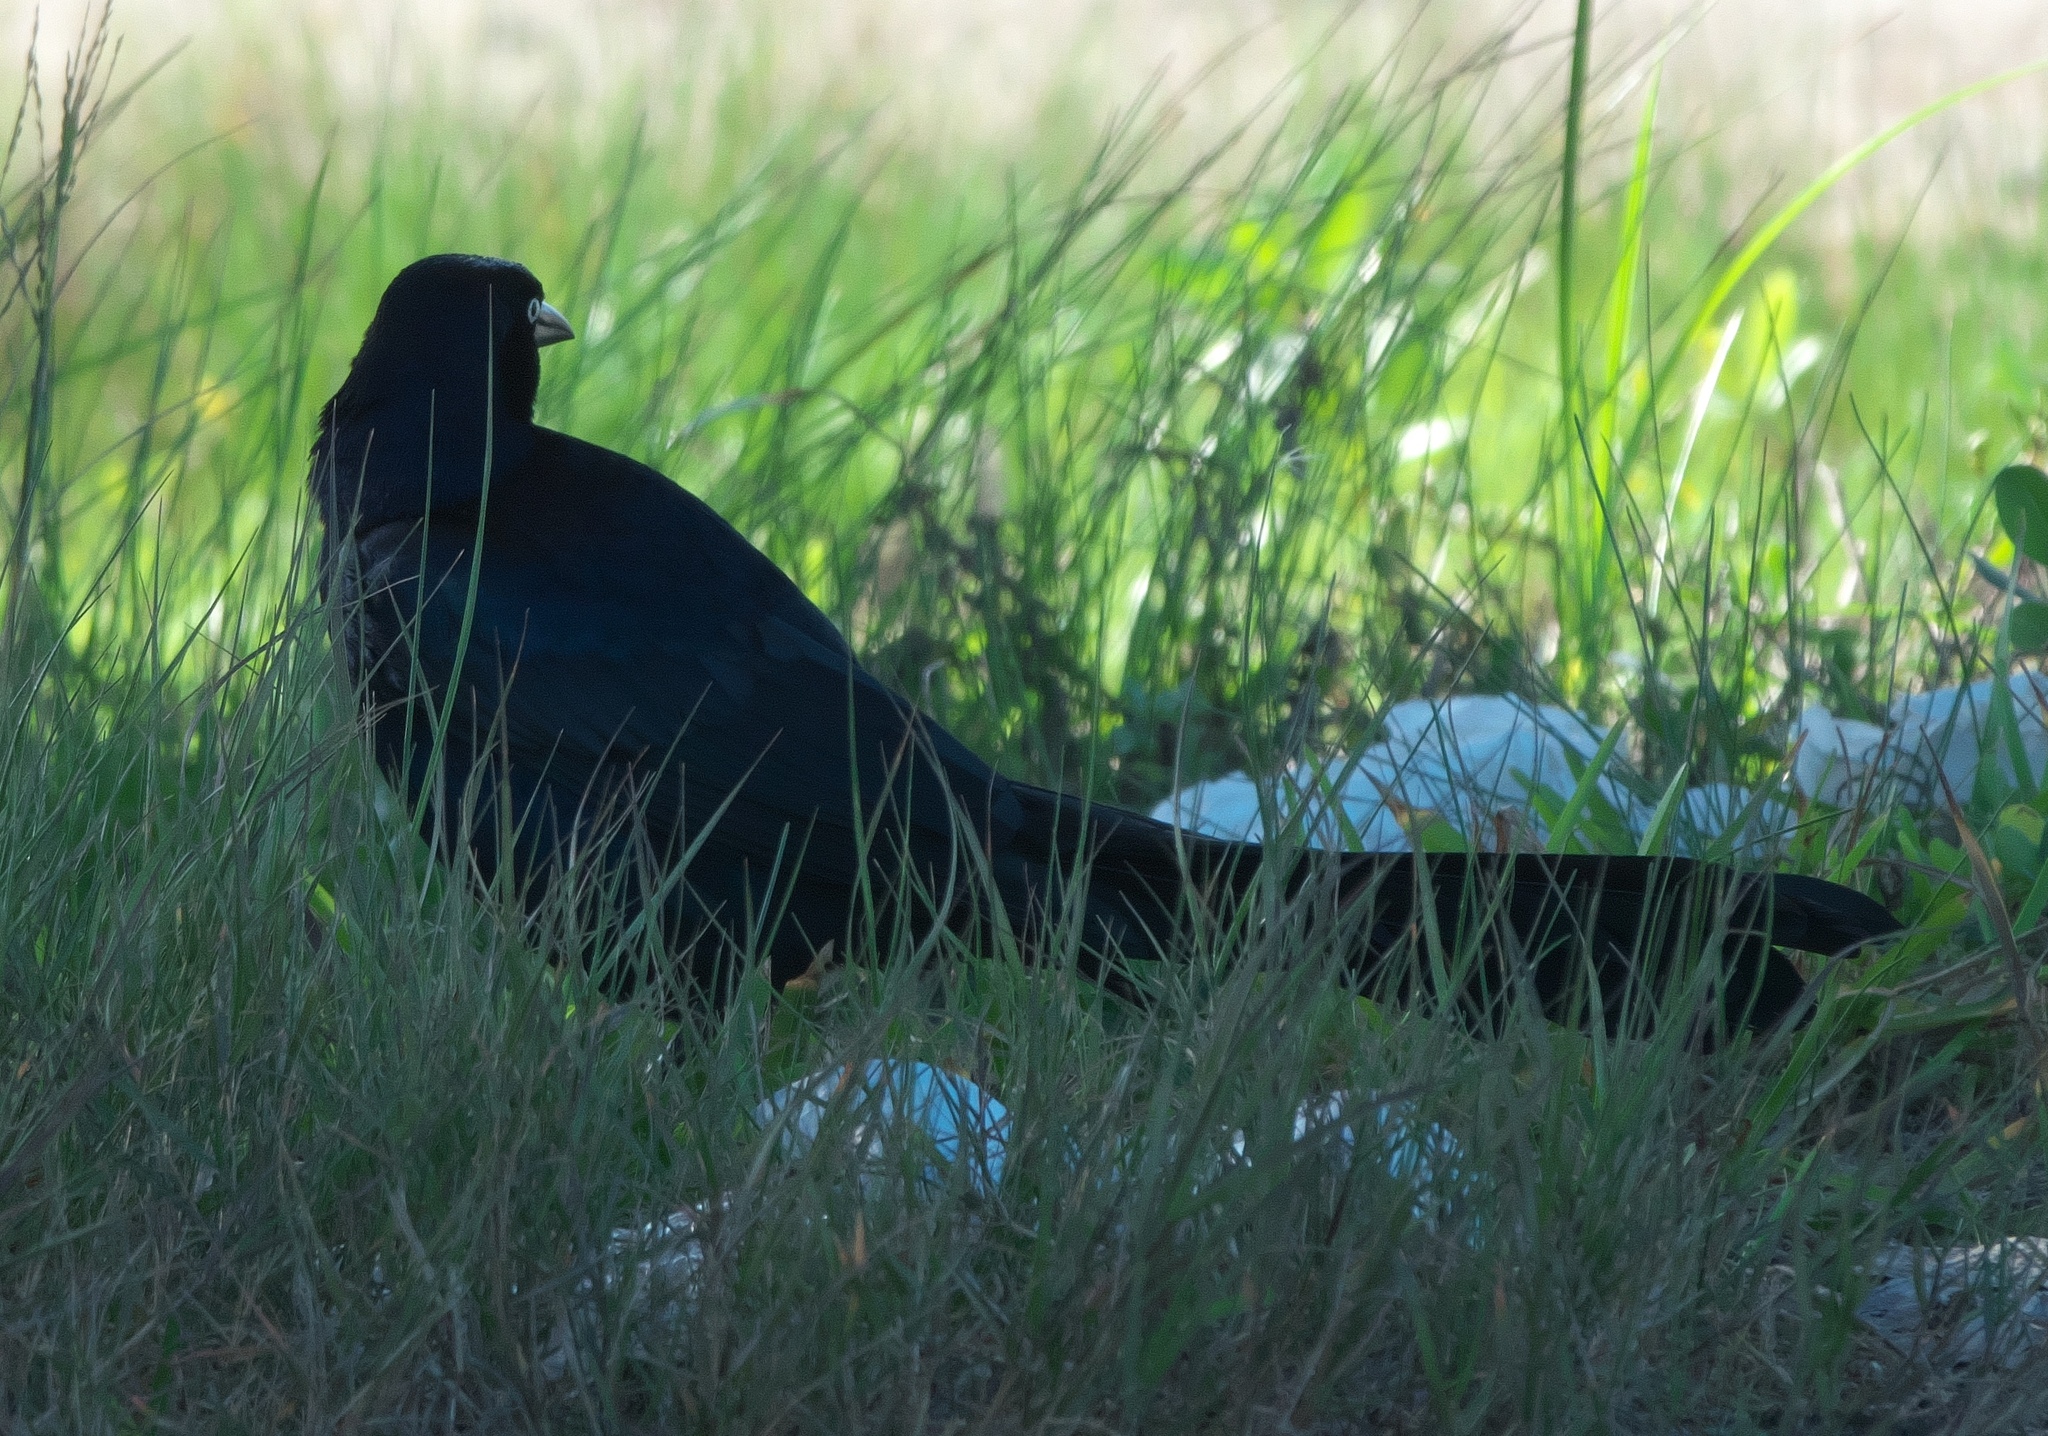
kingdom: Animalia
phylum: Chordata
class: Aves
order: Passeriformes
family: Icteridae
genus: Quiscalus
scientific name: Quiscalus mexicanus
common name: Great-tailed grackle
